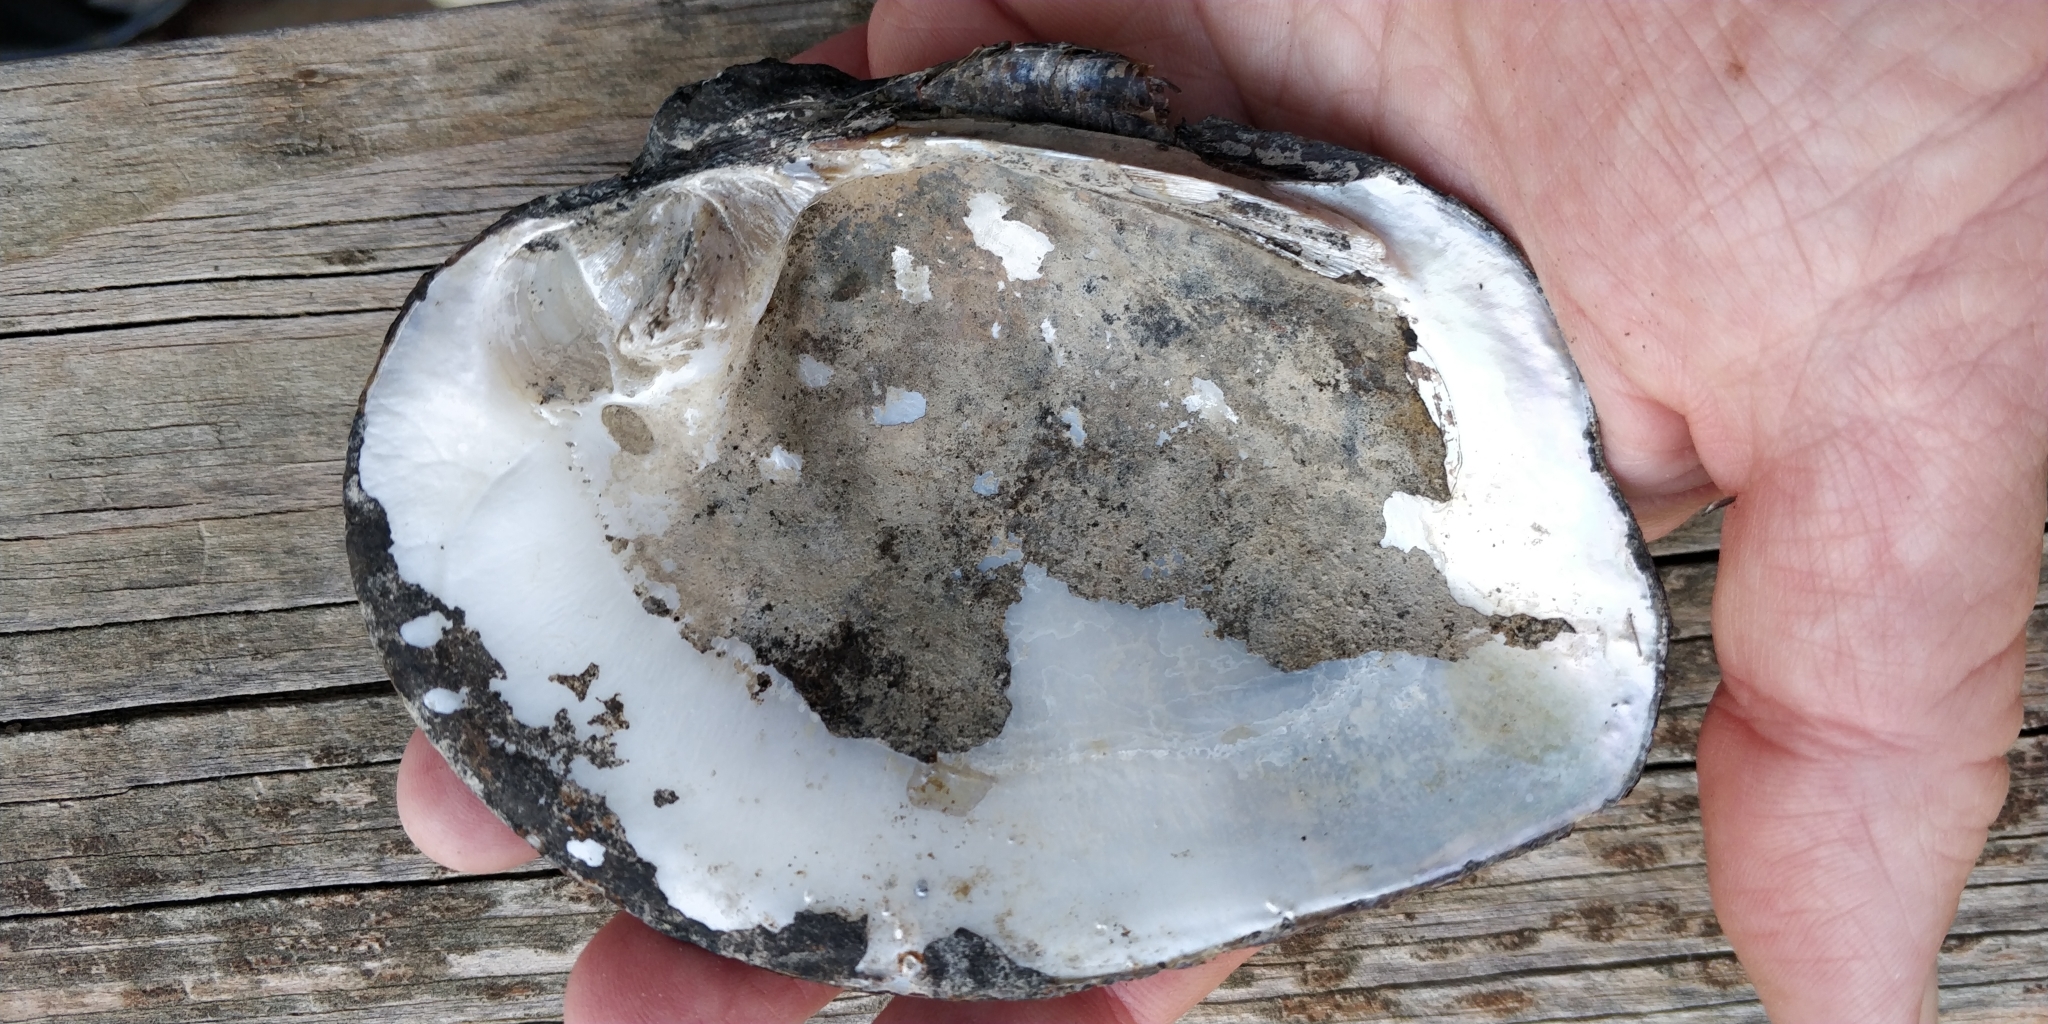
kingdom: Animalia
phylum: Mollusca
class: Bivalvia
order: Unionida
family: Unionidae
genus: Quadrula
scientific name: Quadrula quadrula
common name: Mapleleaf
